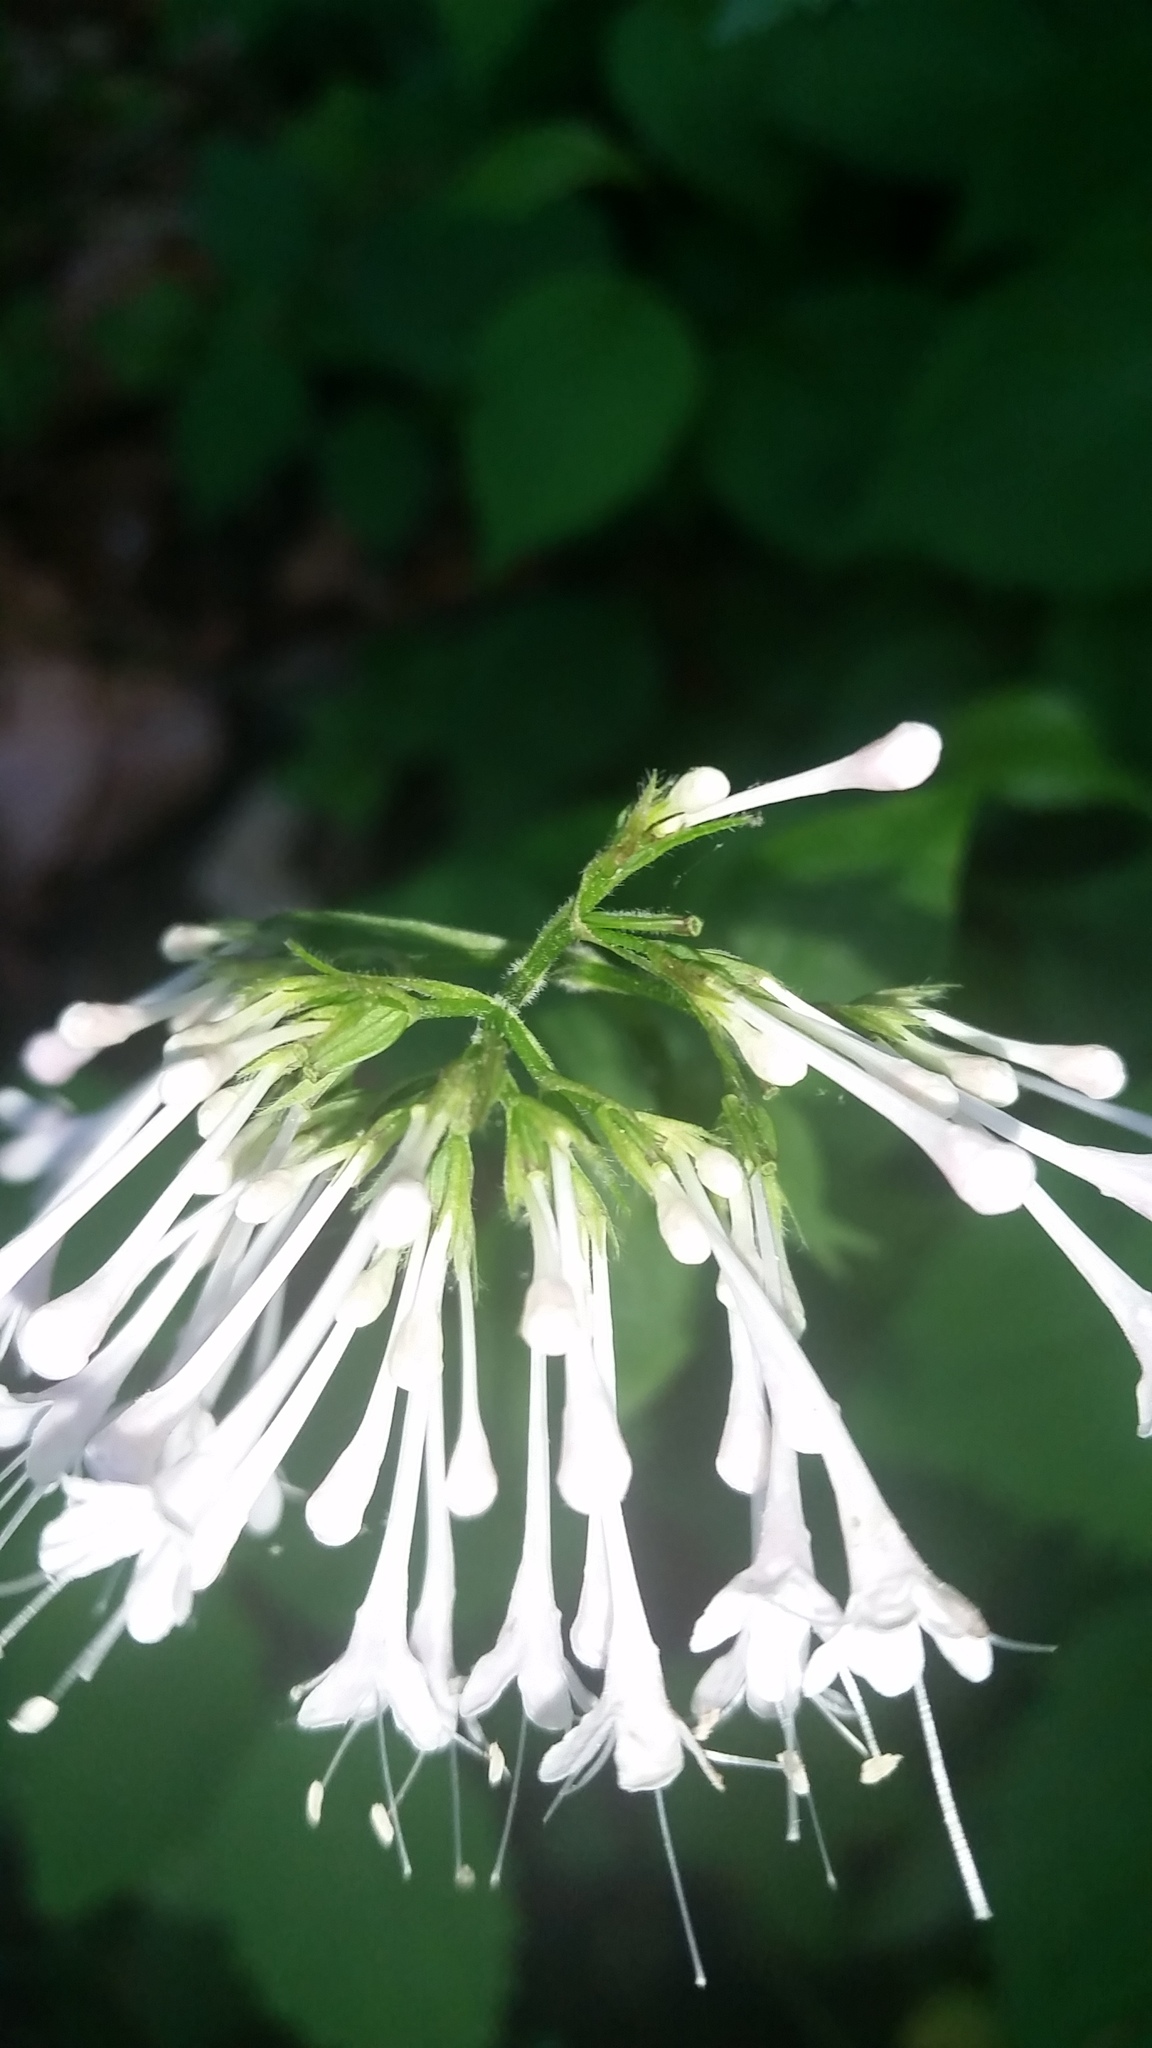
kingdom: Plantae
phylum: Tracheophyta
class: Magnoliopsida
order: Dipsacales
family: Caprifoliaceae
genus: Valeriana
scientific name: Valeriana pauciflora
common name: Long-tube valeriana
